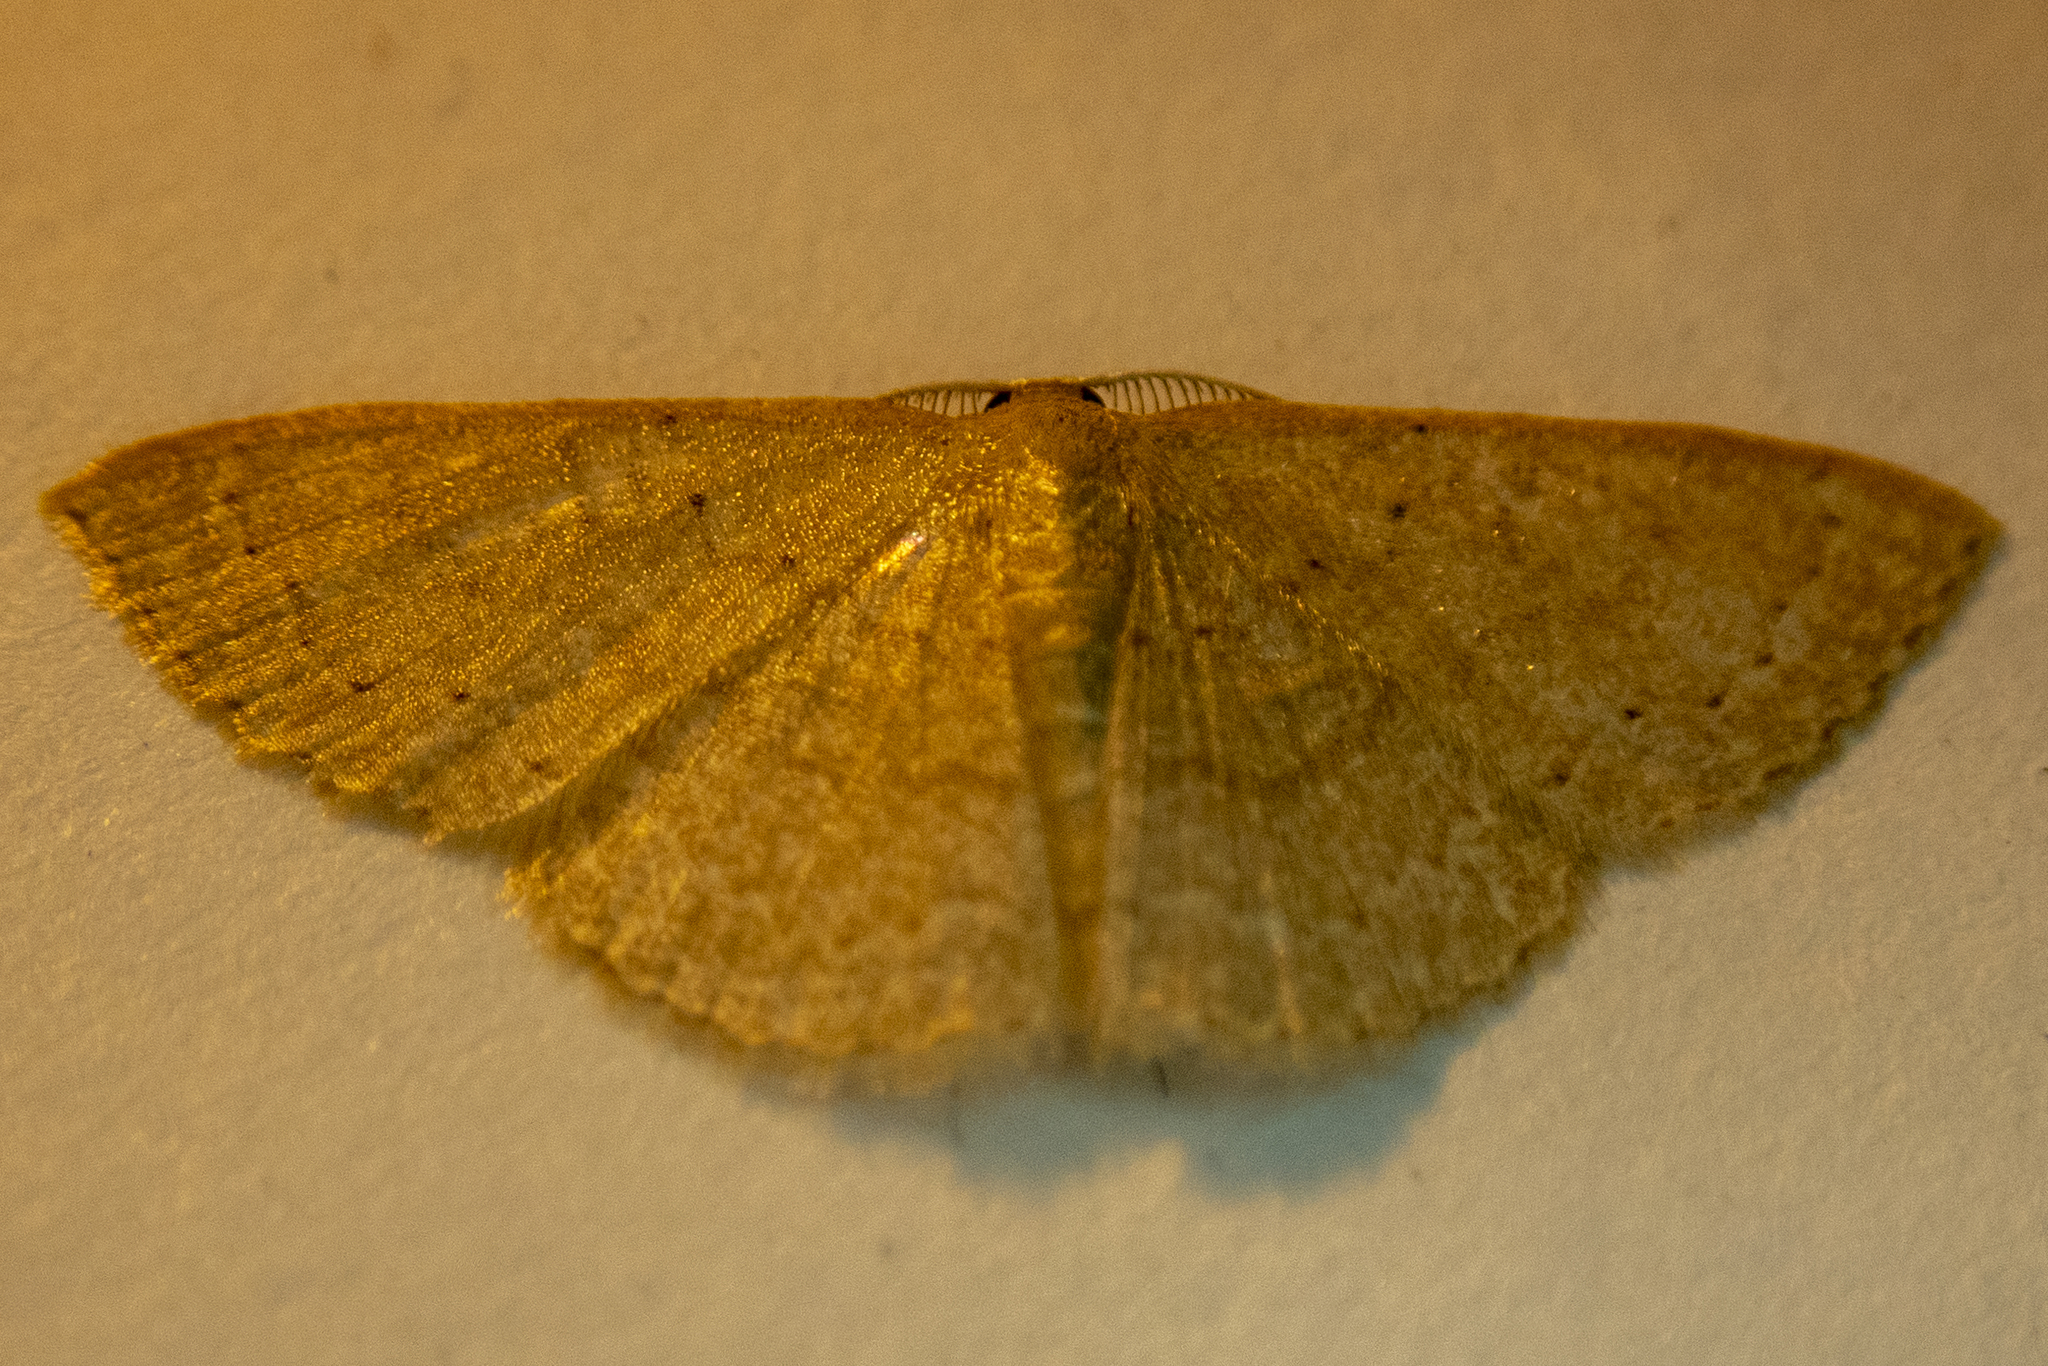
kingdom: Animalia
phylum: Arthropoda
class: Insecta
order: Lepidoptera
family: Geometridae
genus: Pleuroprucha
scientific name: Pleuroprucha insulsaria
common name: Common tan wave
